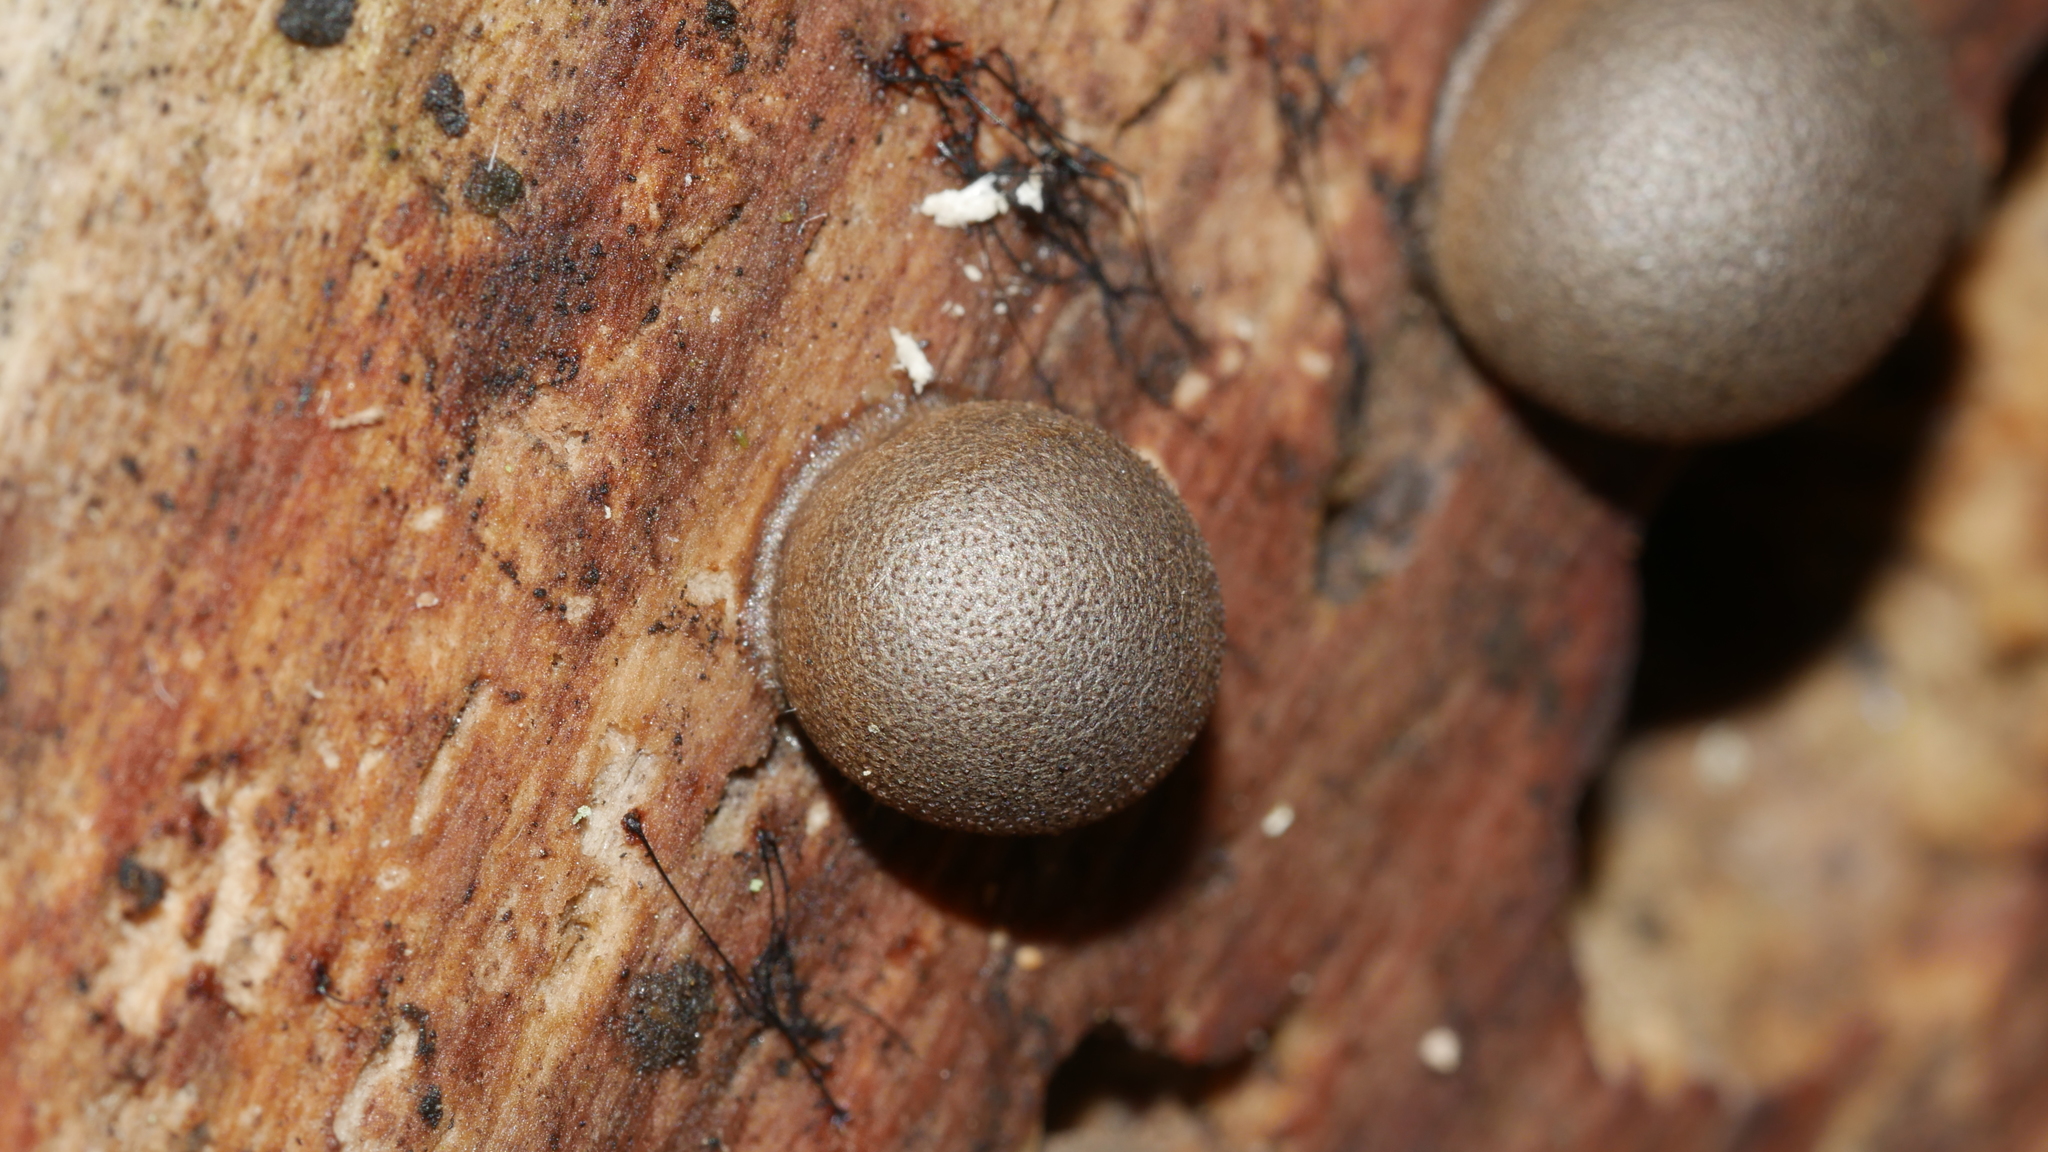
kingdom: Protozoa
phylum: Mycetozoa
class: Myxomycetes
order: Cribrariales
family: Tubiferaceae
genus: Lycogala
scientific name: Lycogala epidendrum
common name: Wolf's milk
